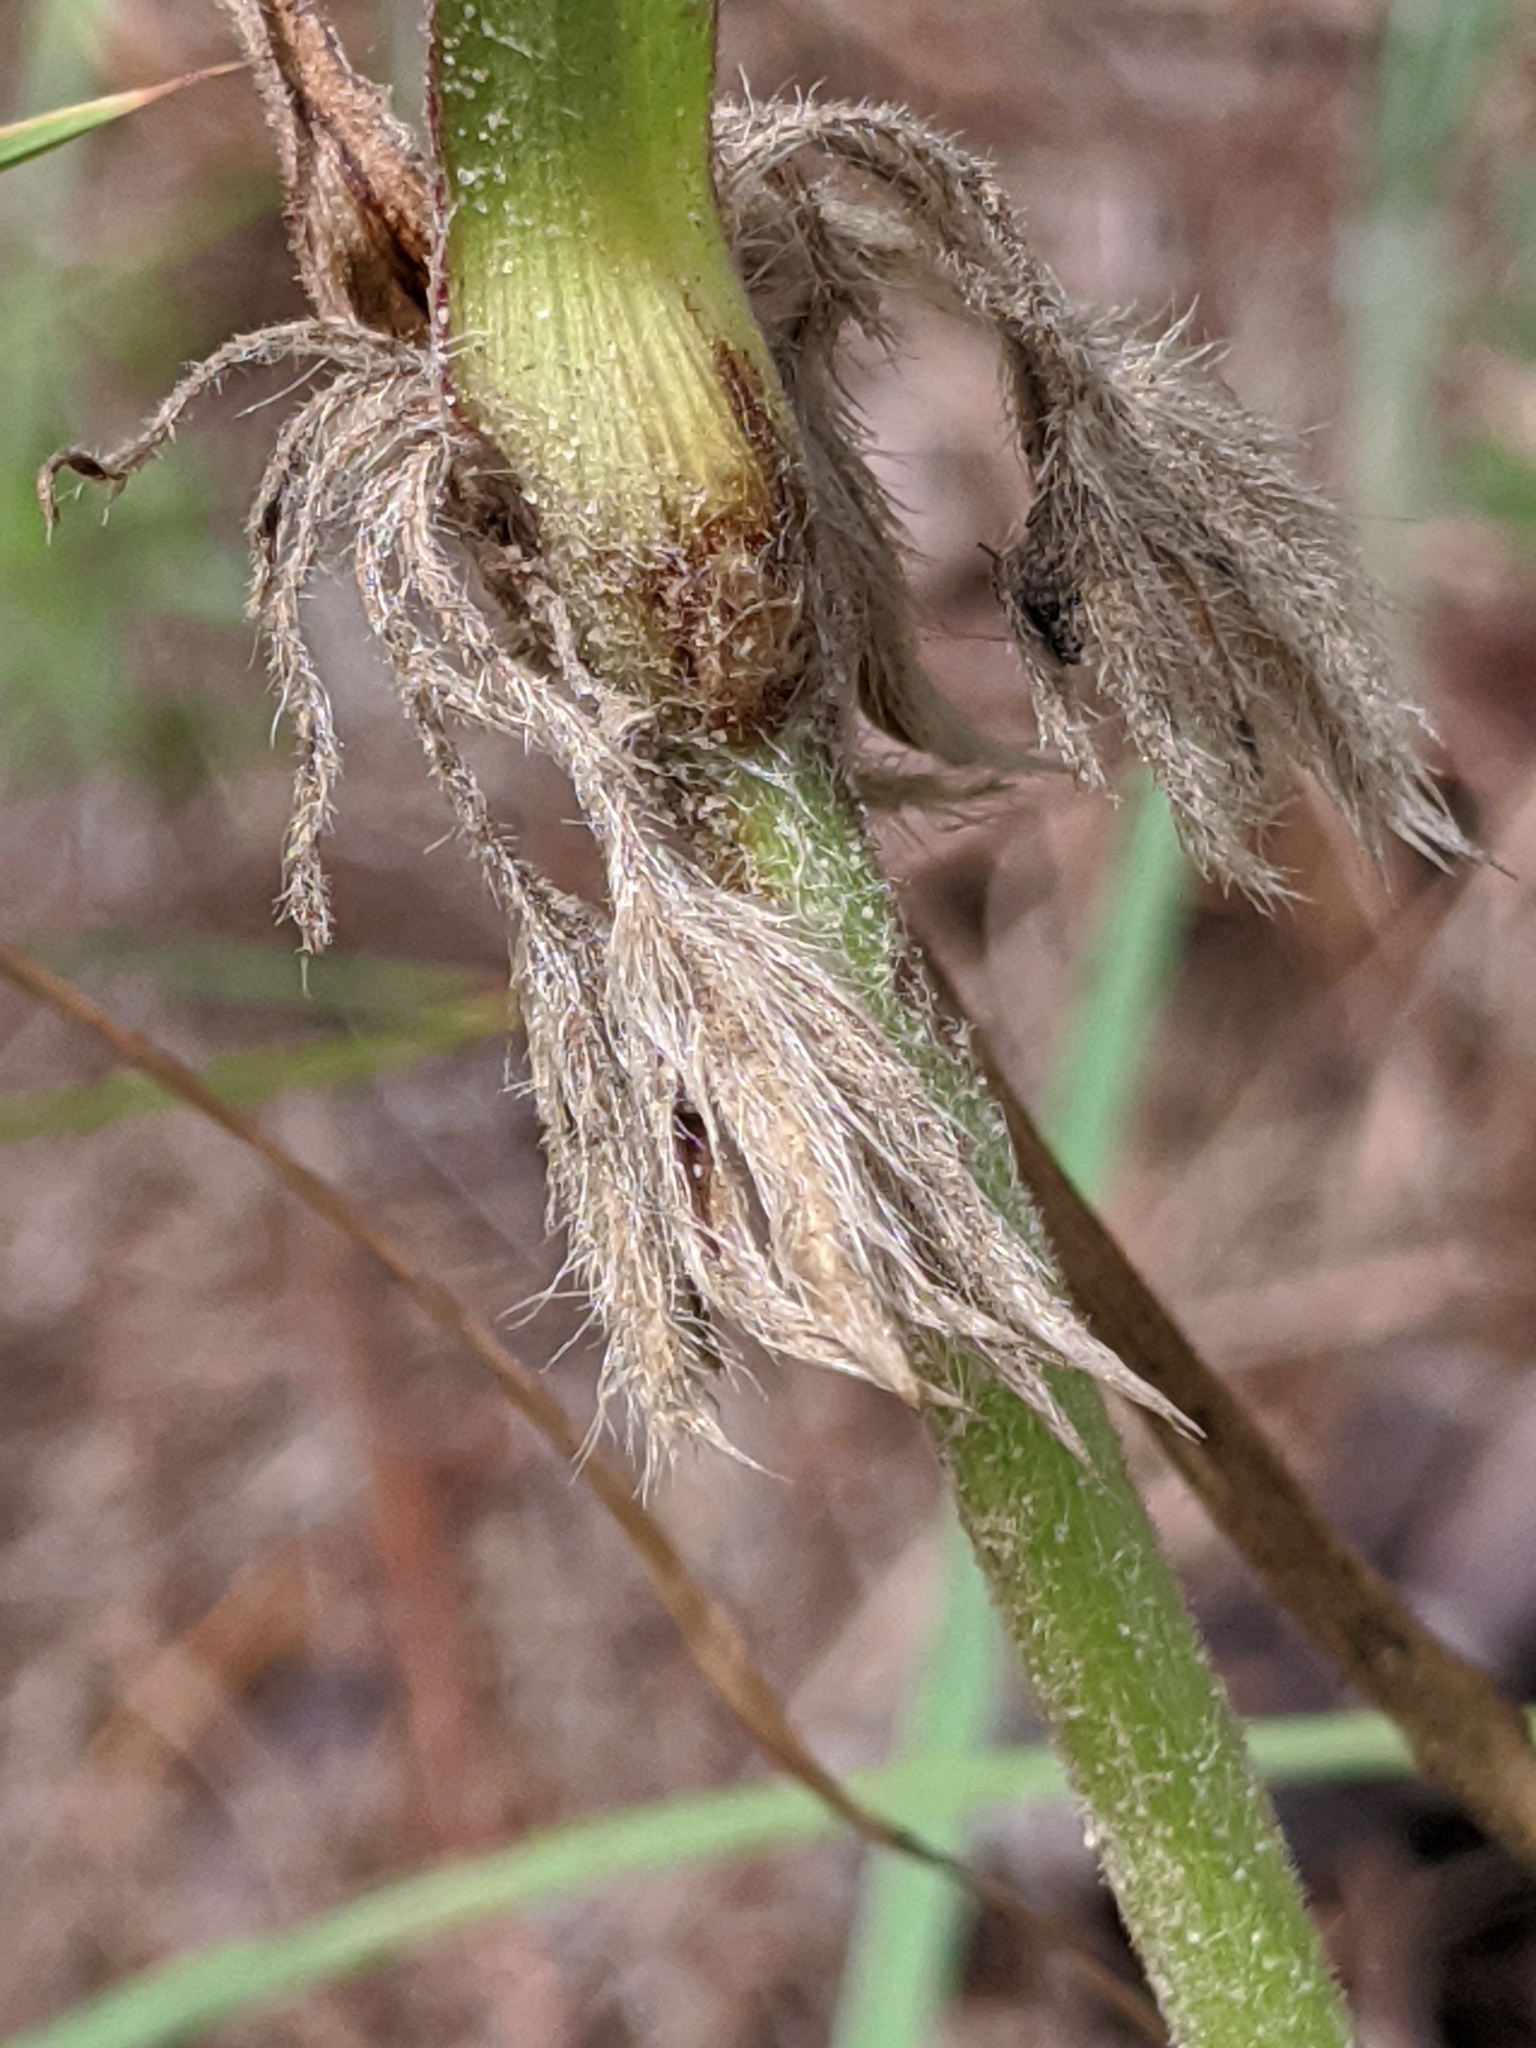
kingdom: Plantae
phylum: Tracheophyta
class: Liliopsida
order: Commelinales
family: Commelinaceae
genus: Tradescantia
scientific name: Tradescantia reverchonii
